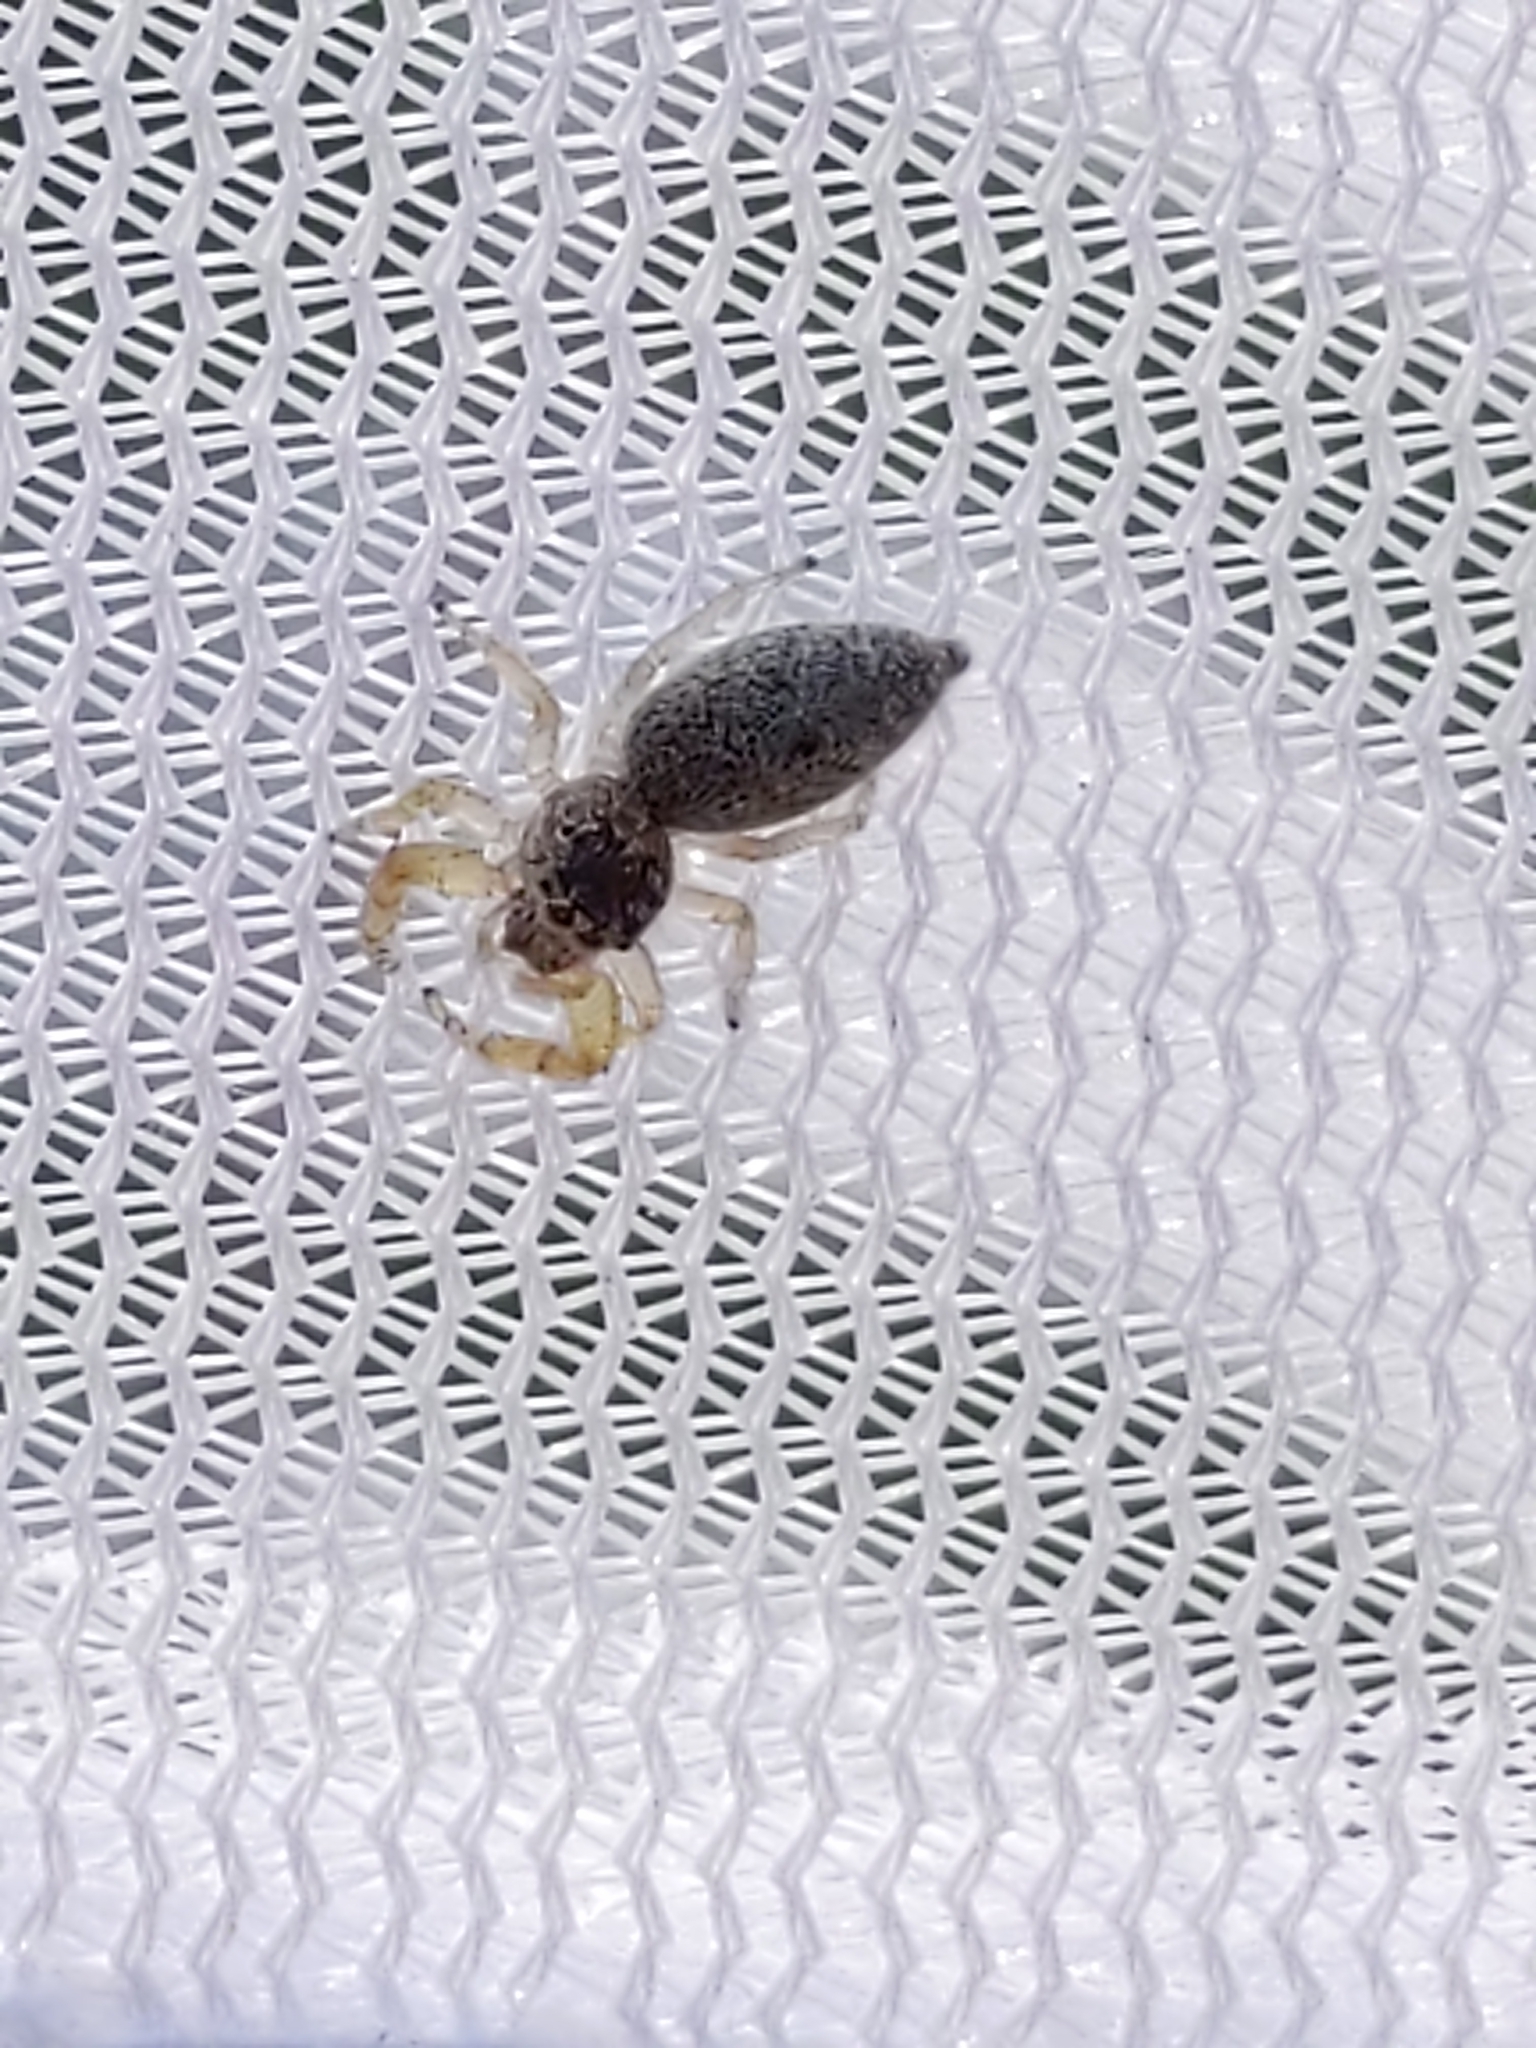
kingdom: Animalia
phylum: Arthropoda
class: Arachnida
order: Araneae
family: Salticidae
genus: Hentzia
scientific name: Hentzia
